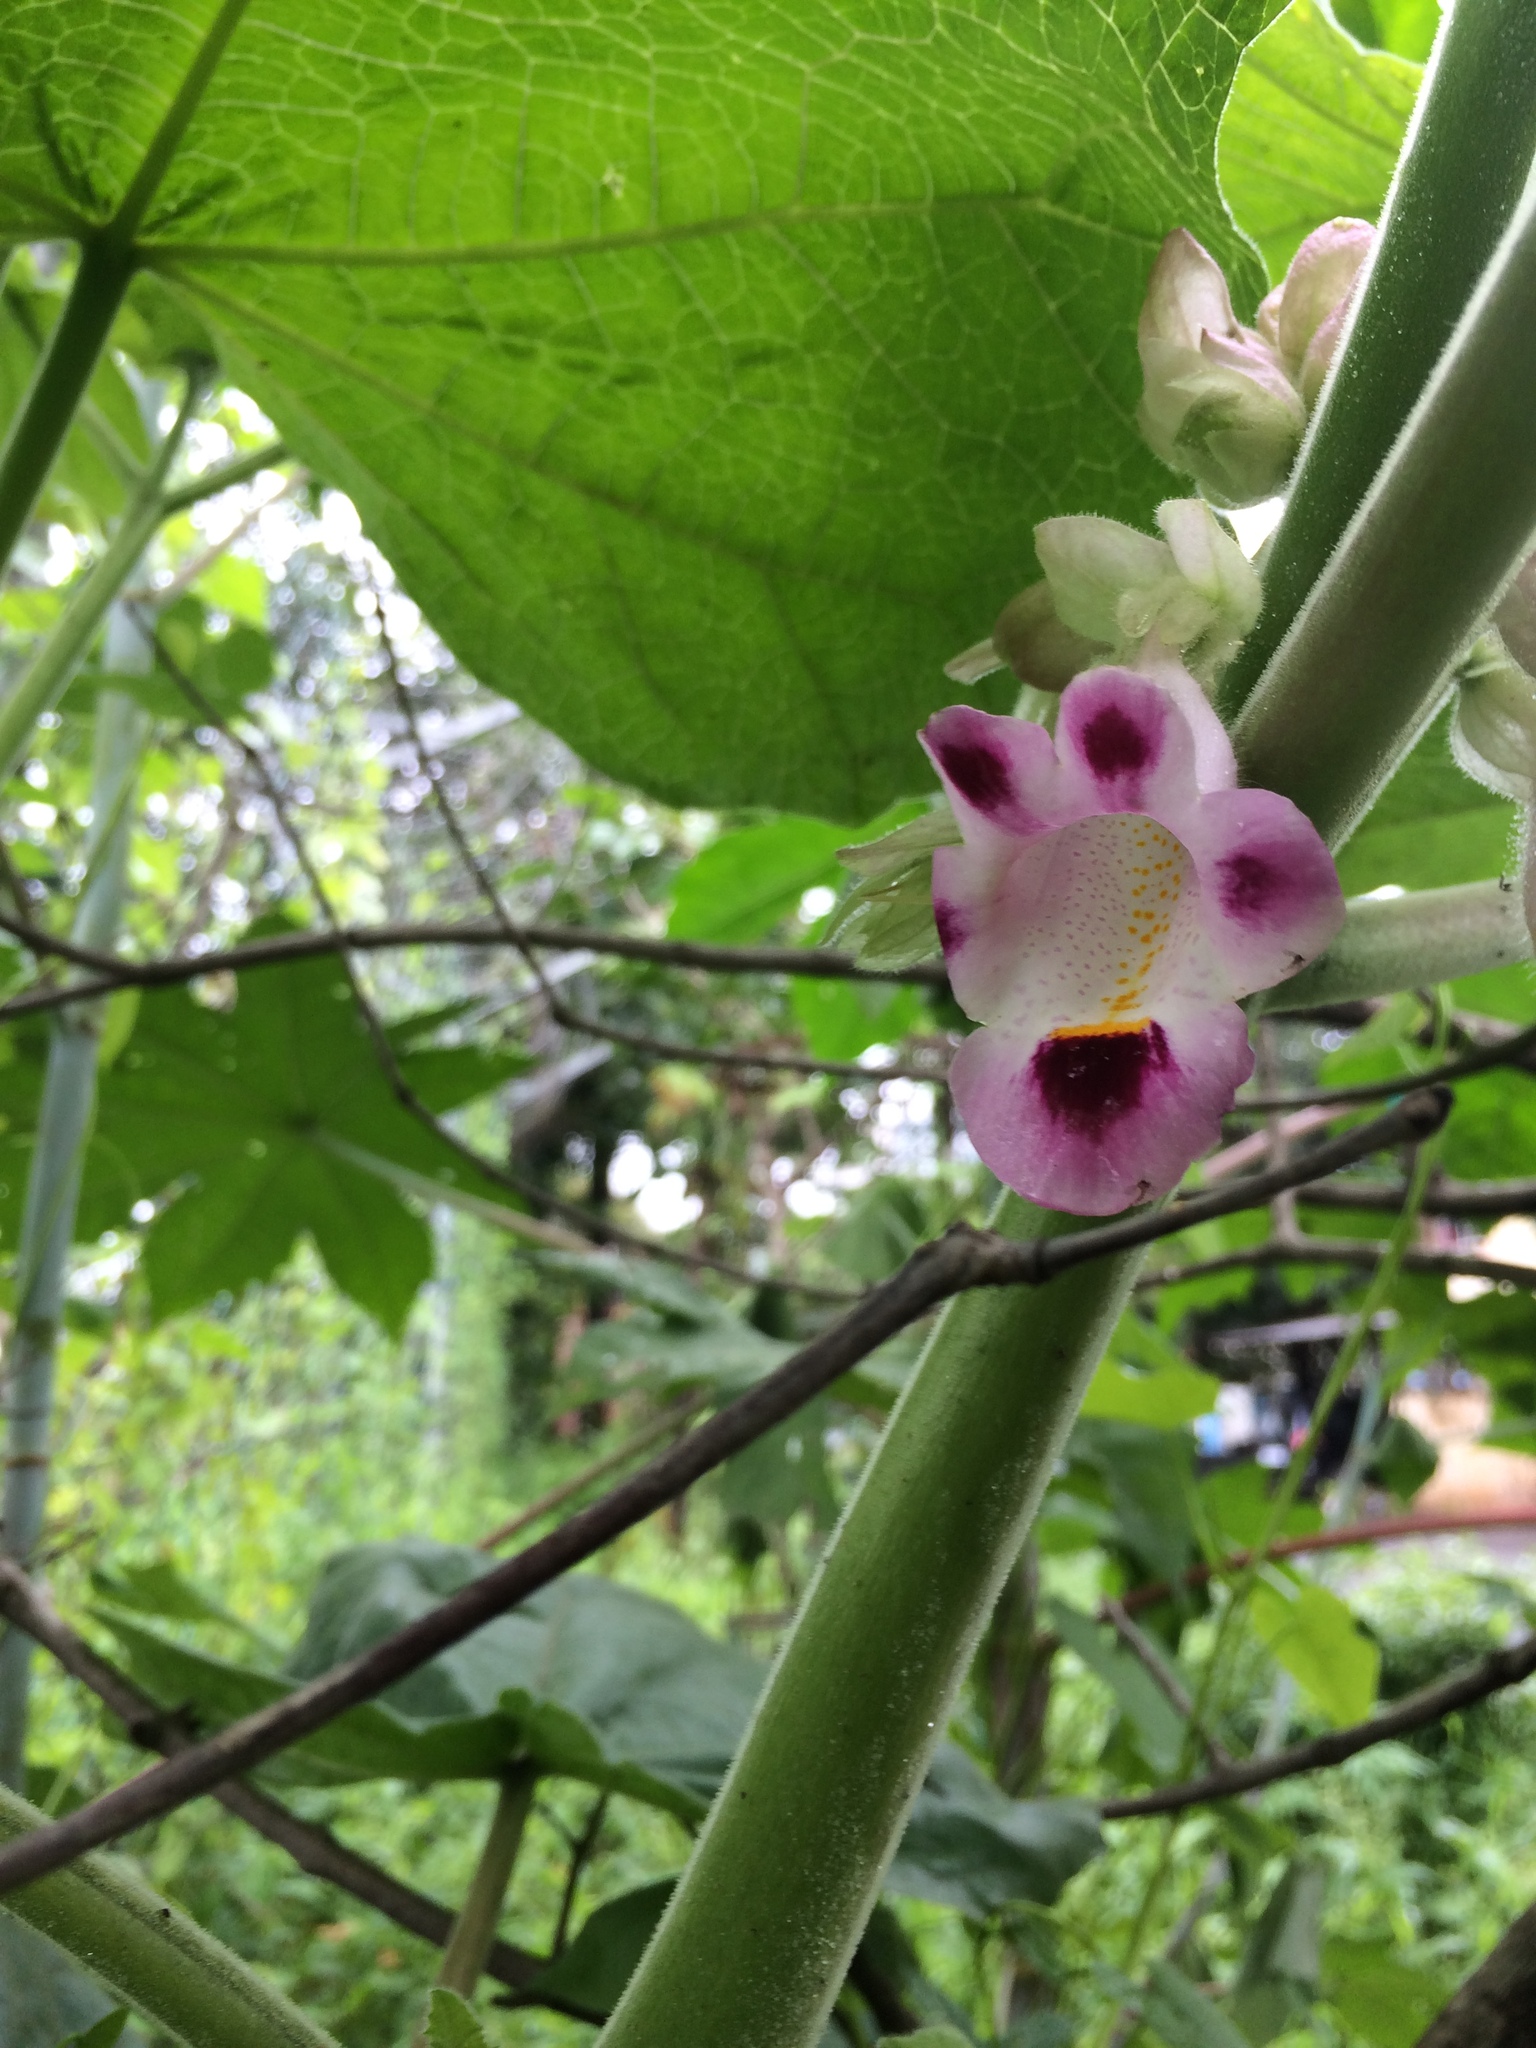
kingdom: Plantae
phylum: Tracheophyta
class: Magnoliopsida
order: Lamiales
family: Martyniaceae
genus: Martynia
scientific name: Martynia annua
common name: Tiger's-claw
